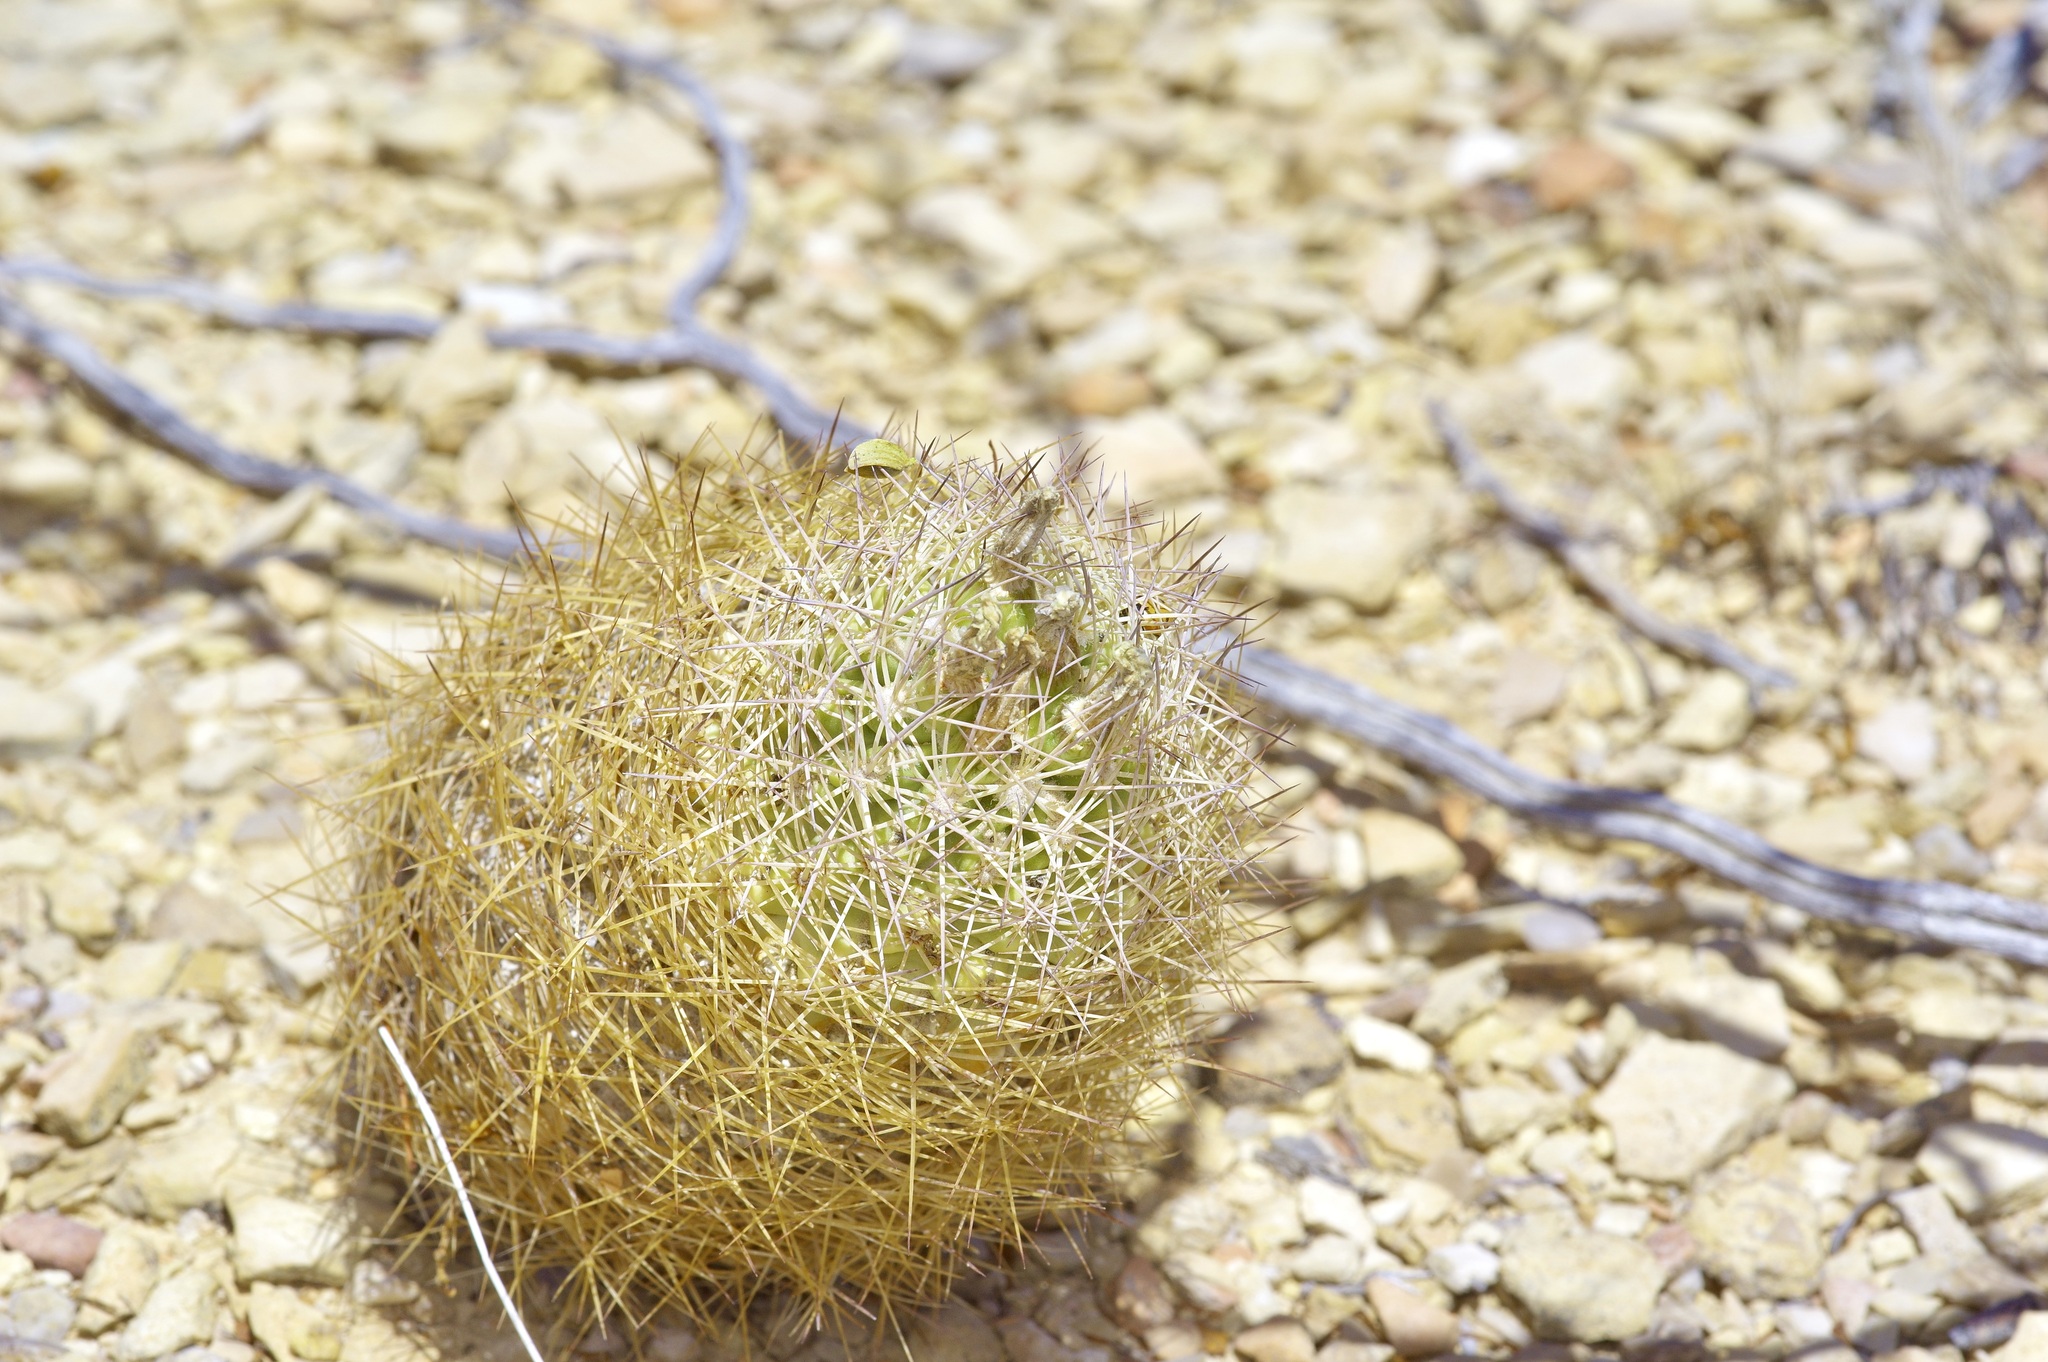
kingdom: Plantae
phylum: Tracheophyta
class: Magnoliopsida
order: Caryophyllales
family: Cactaceae
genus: Sclerocactus
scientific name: Sclerocactus warnockii
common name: Pineapple cactus
